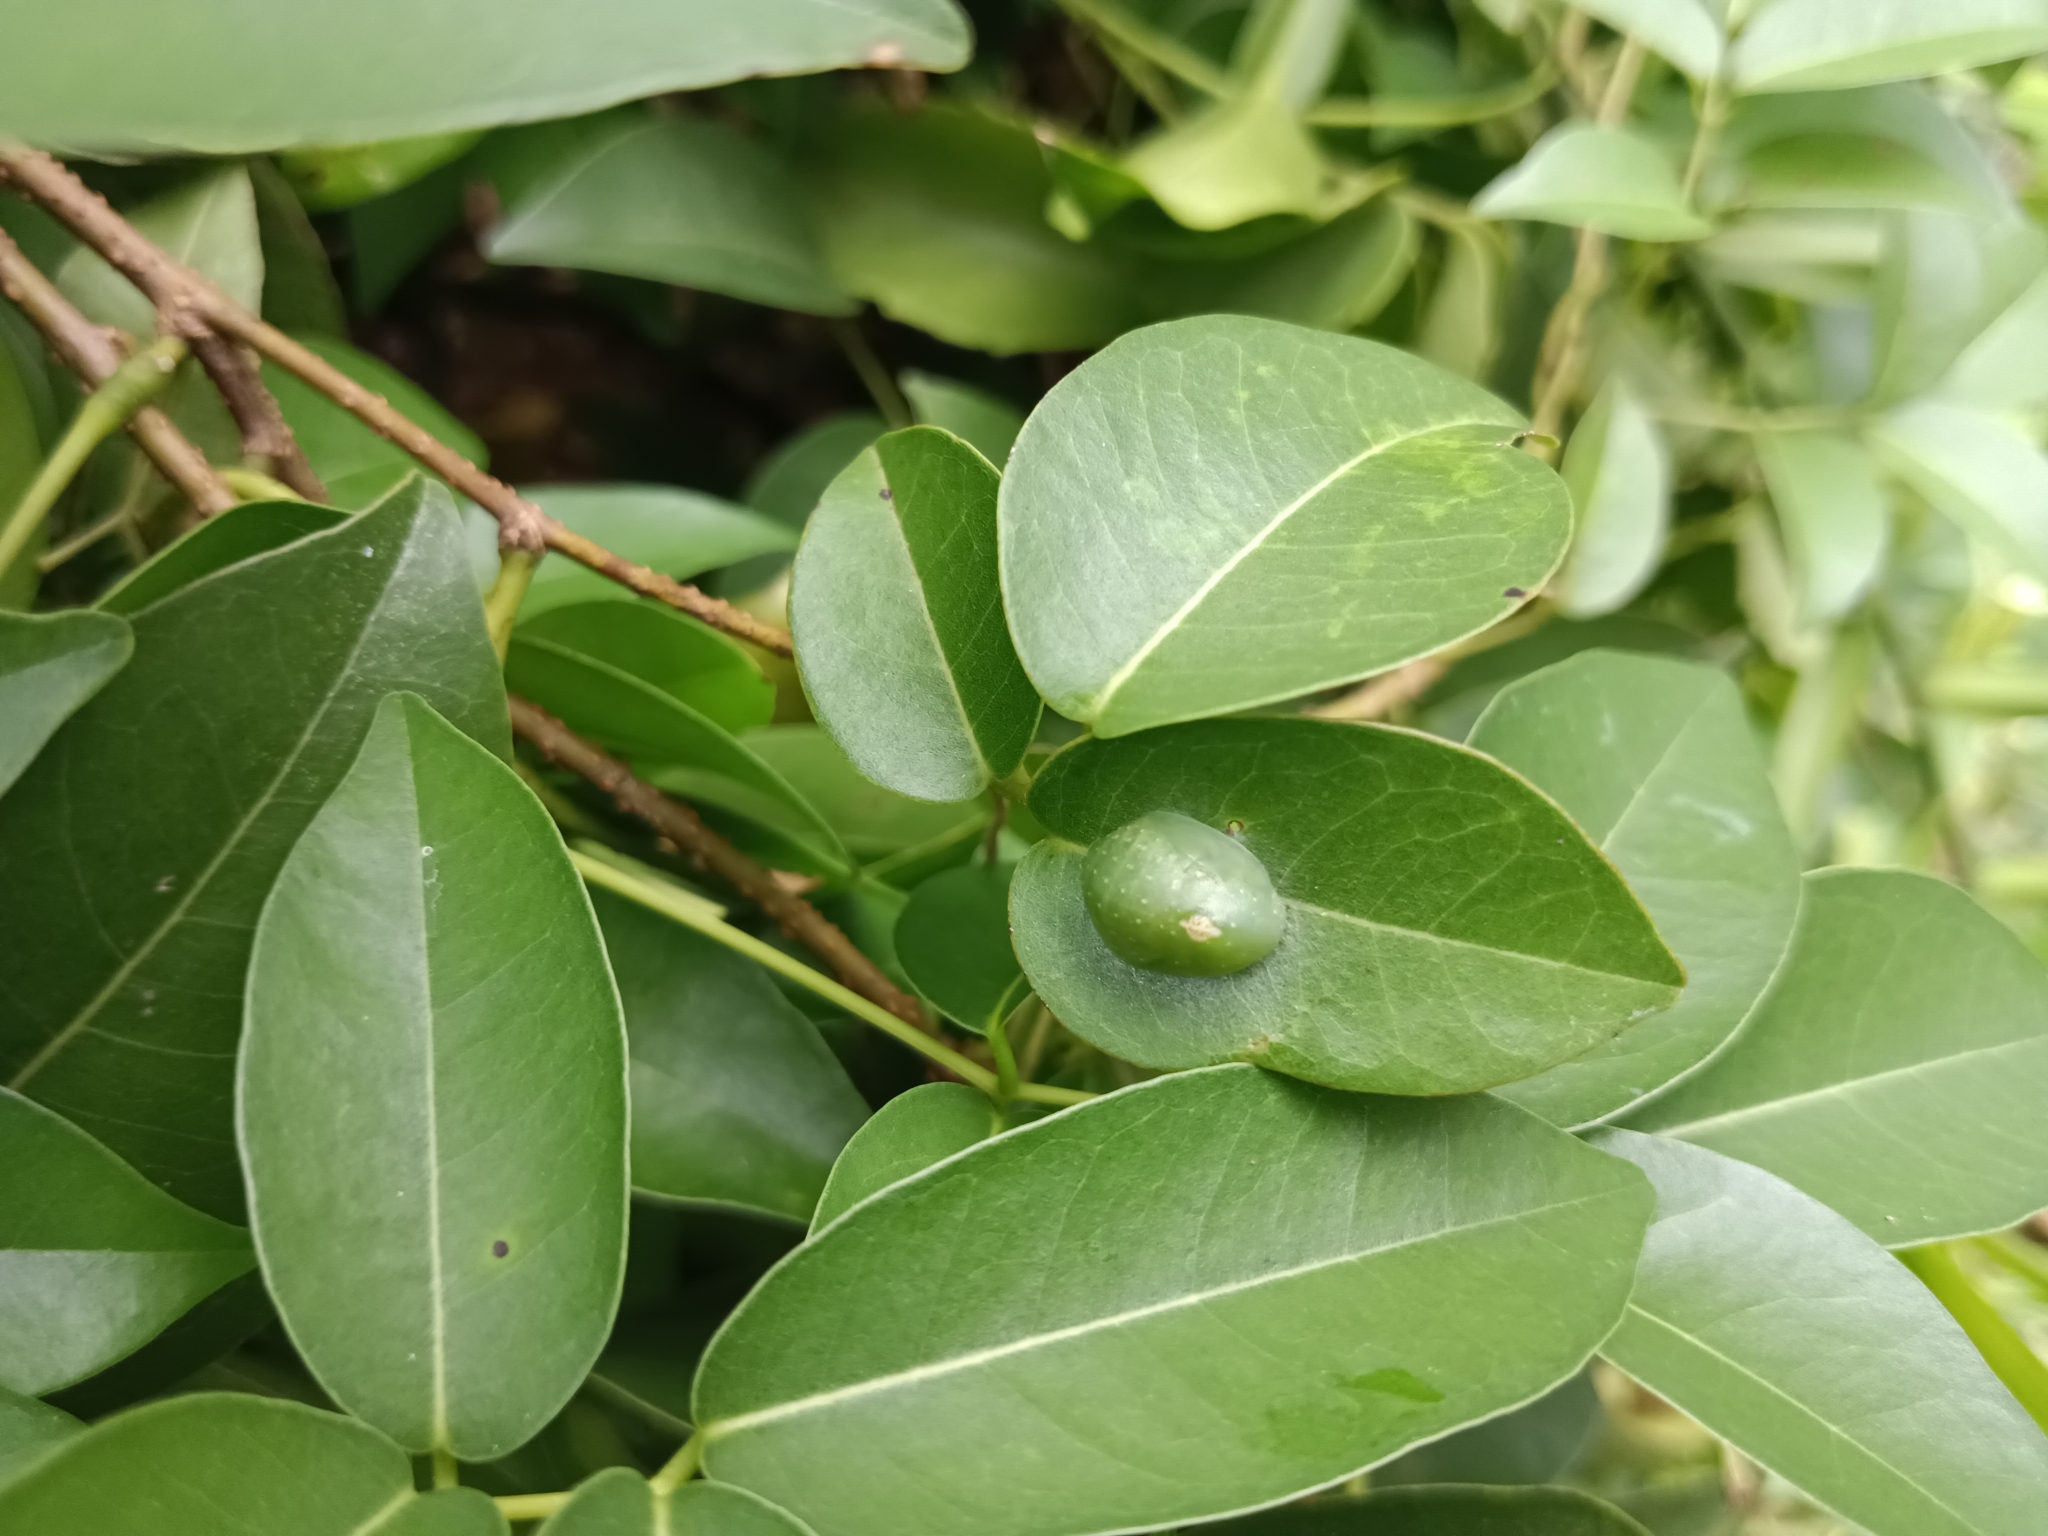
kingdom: Animalia
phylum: Arthropoda
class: Insecta
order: Lepidoptera
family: Lycaenidae
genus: Curetis
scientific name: Curetis thetis
